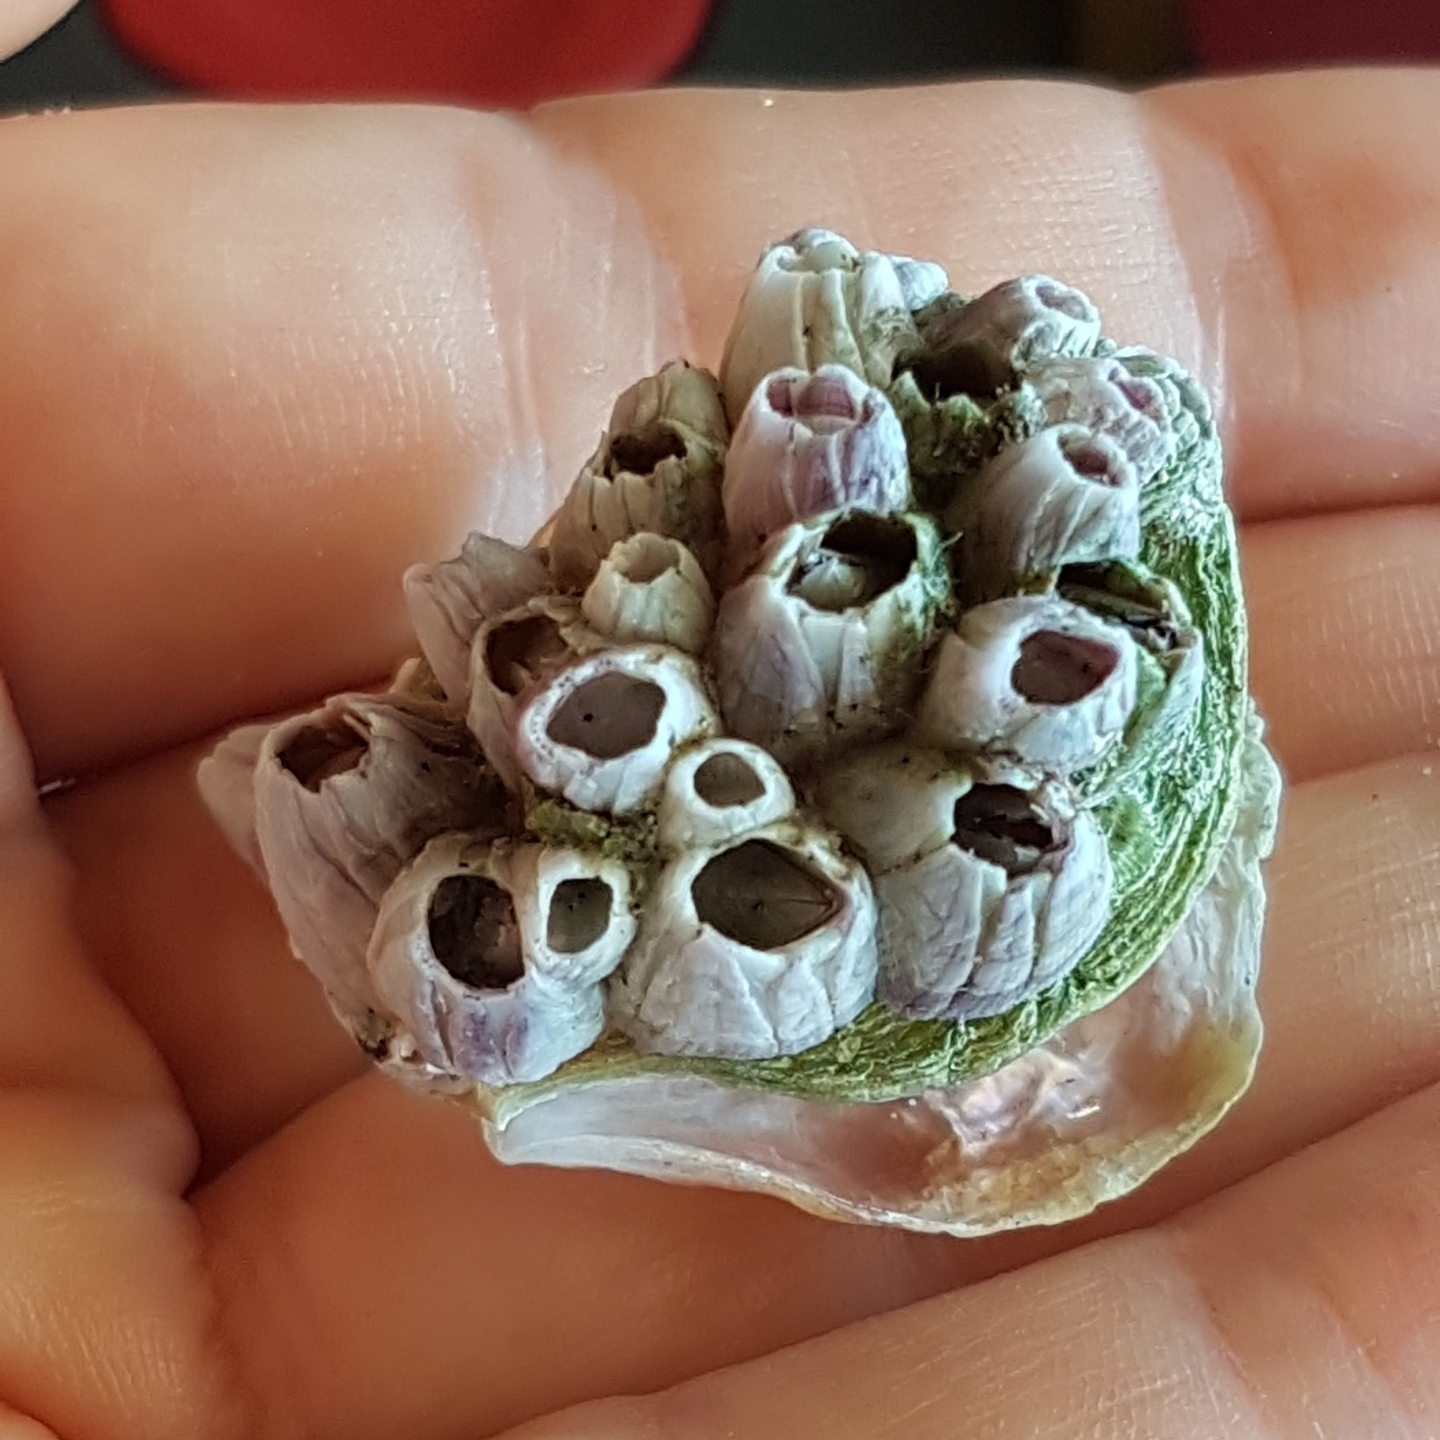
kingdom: Animalia
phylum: Arthropoda
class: Maxillopoda
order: Sessilia
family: Balanidae
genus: Perforatus
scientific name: Perforatus perforatus
